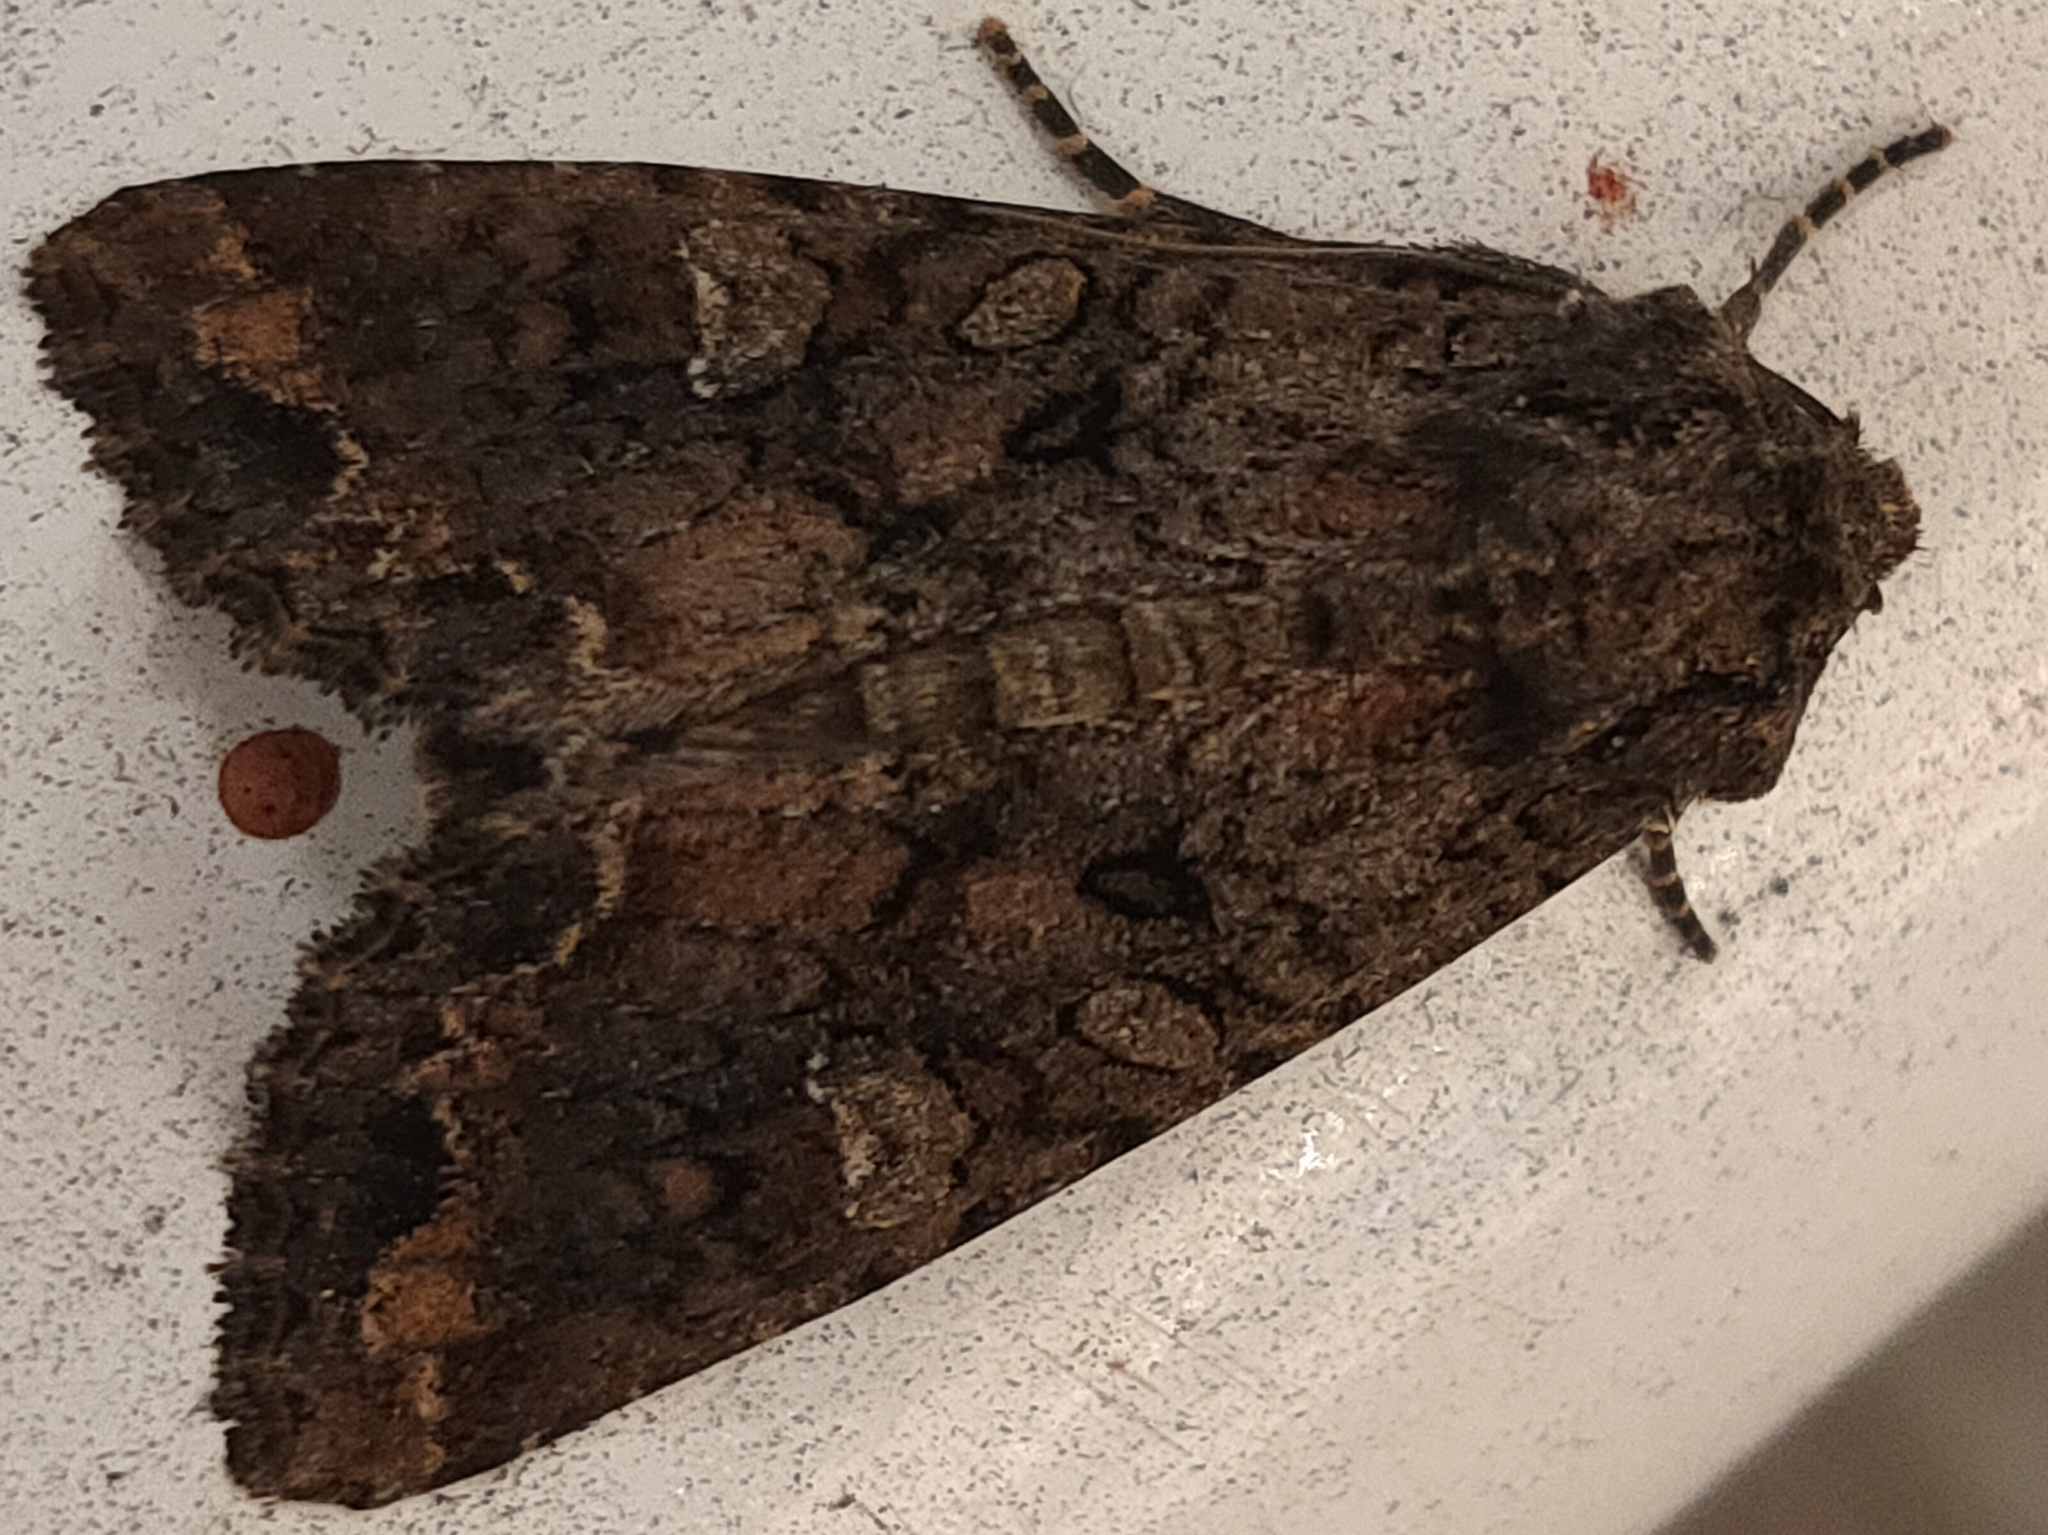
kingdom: Animalia
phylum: Arthropoda
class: Insecta
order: Lepidoptera
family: Noctuidae
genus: Mamestra
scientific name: Mamestra brassicae
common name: Cabbage moth
